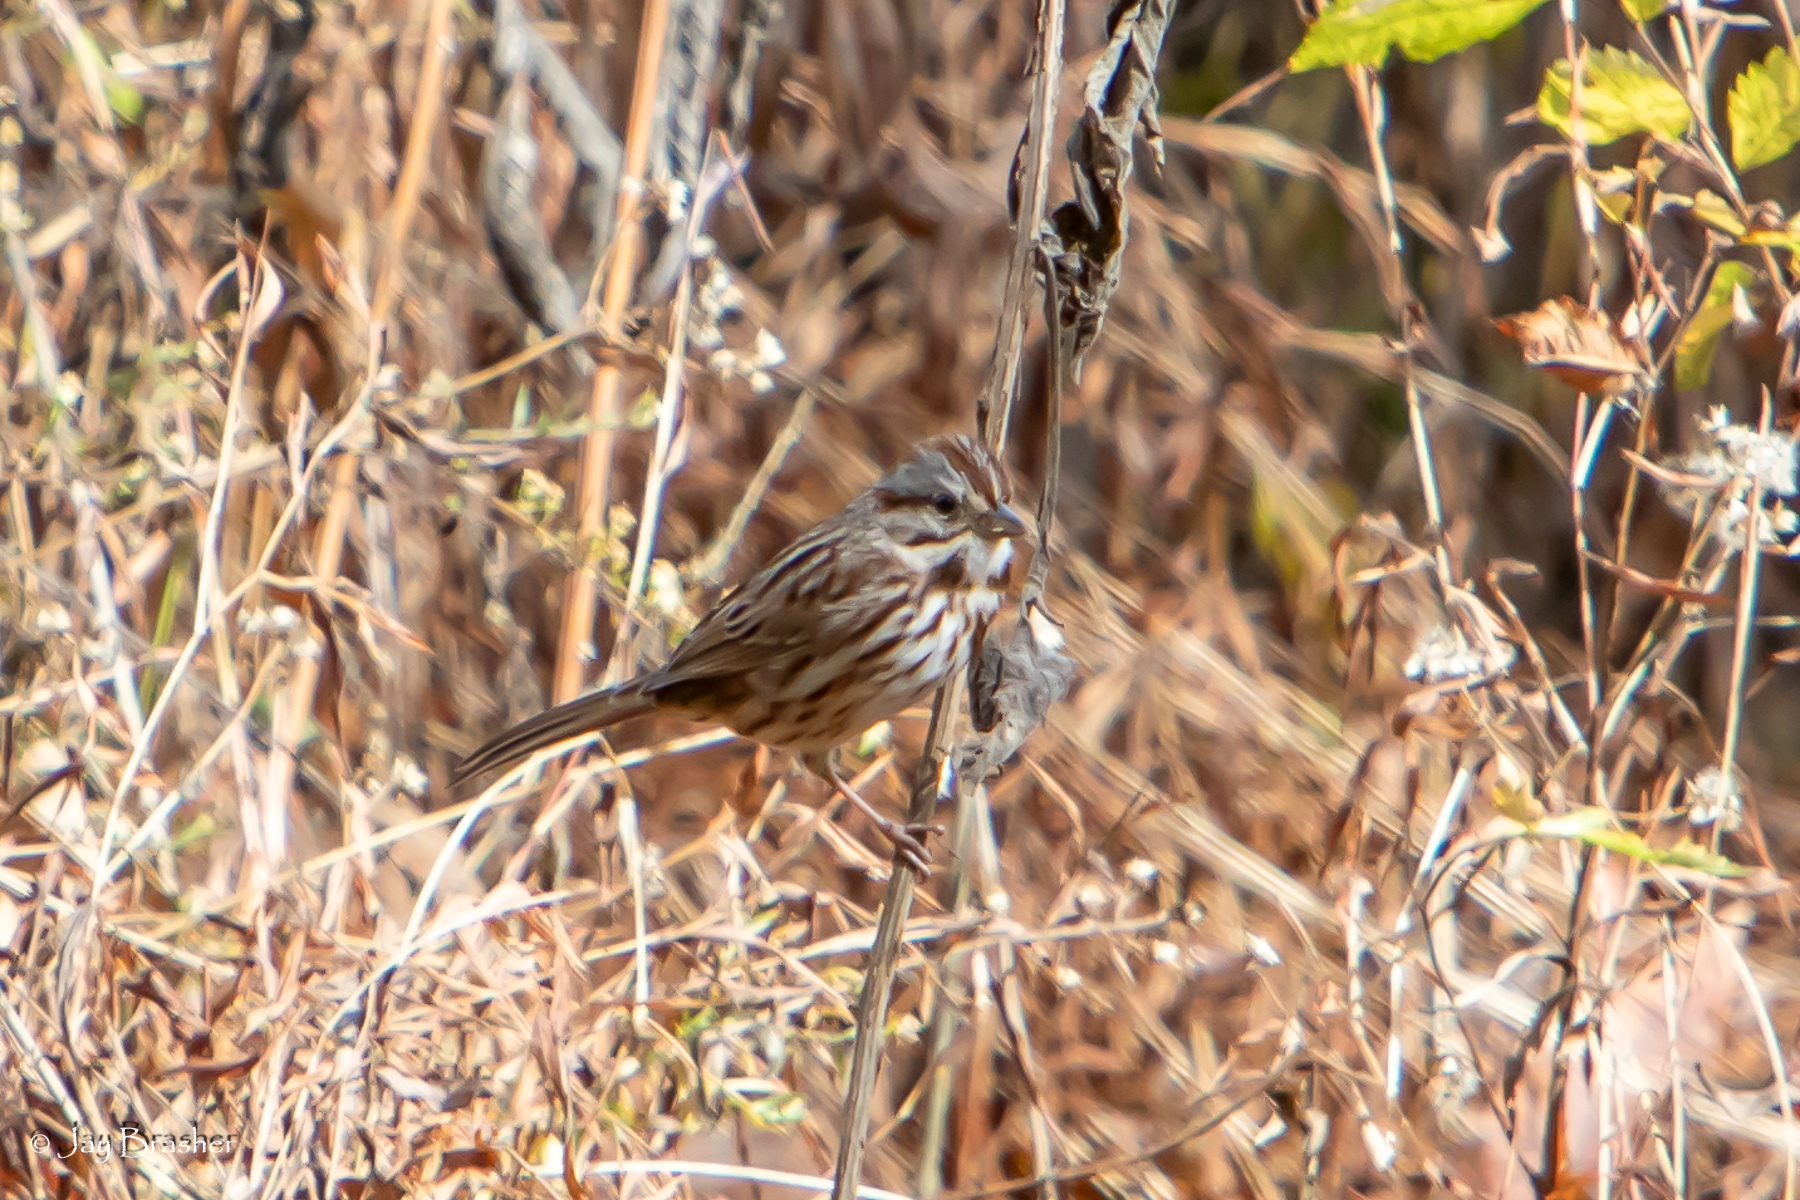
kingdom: Animalia
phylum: Chordata
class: Aves
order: Passeriformes
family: Passerellidae
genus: Melospiza
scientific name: Melospiza melodia
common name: Song sparrow
